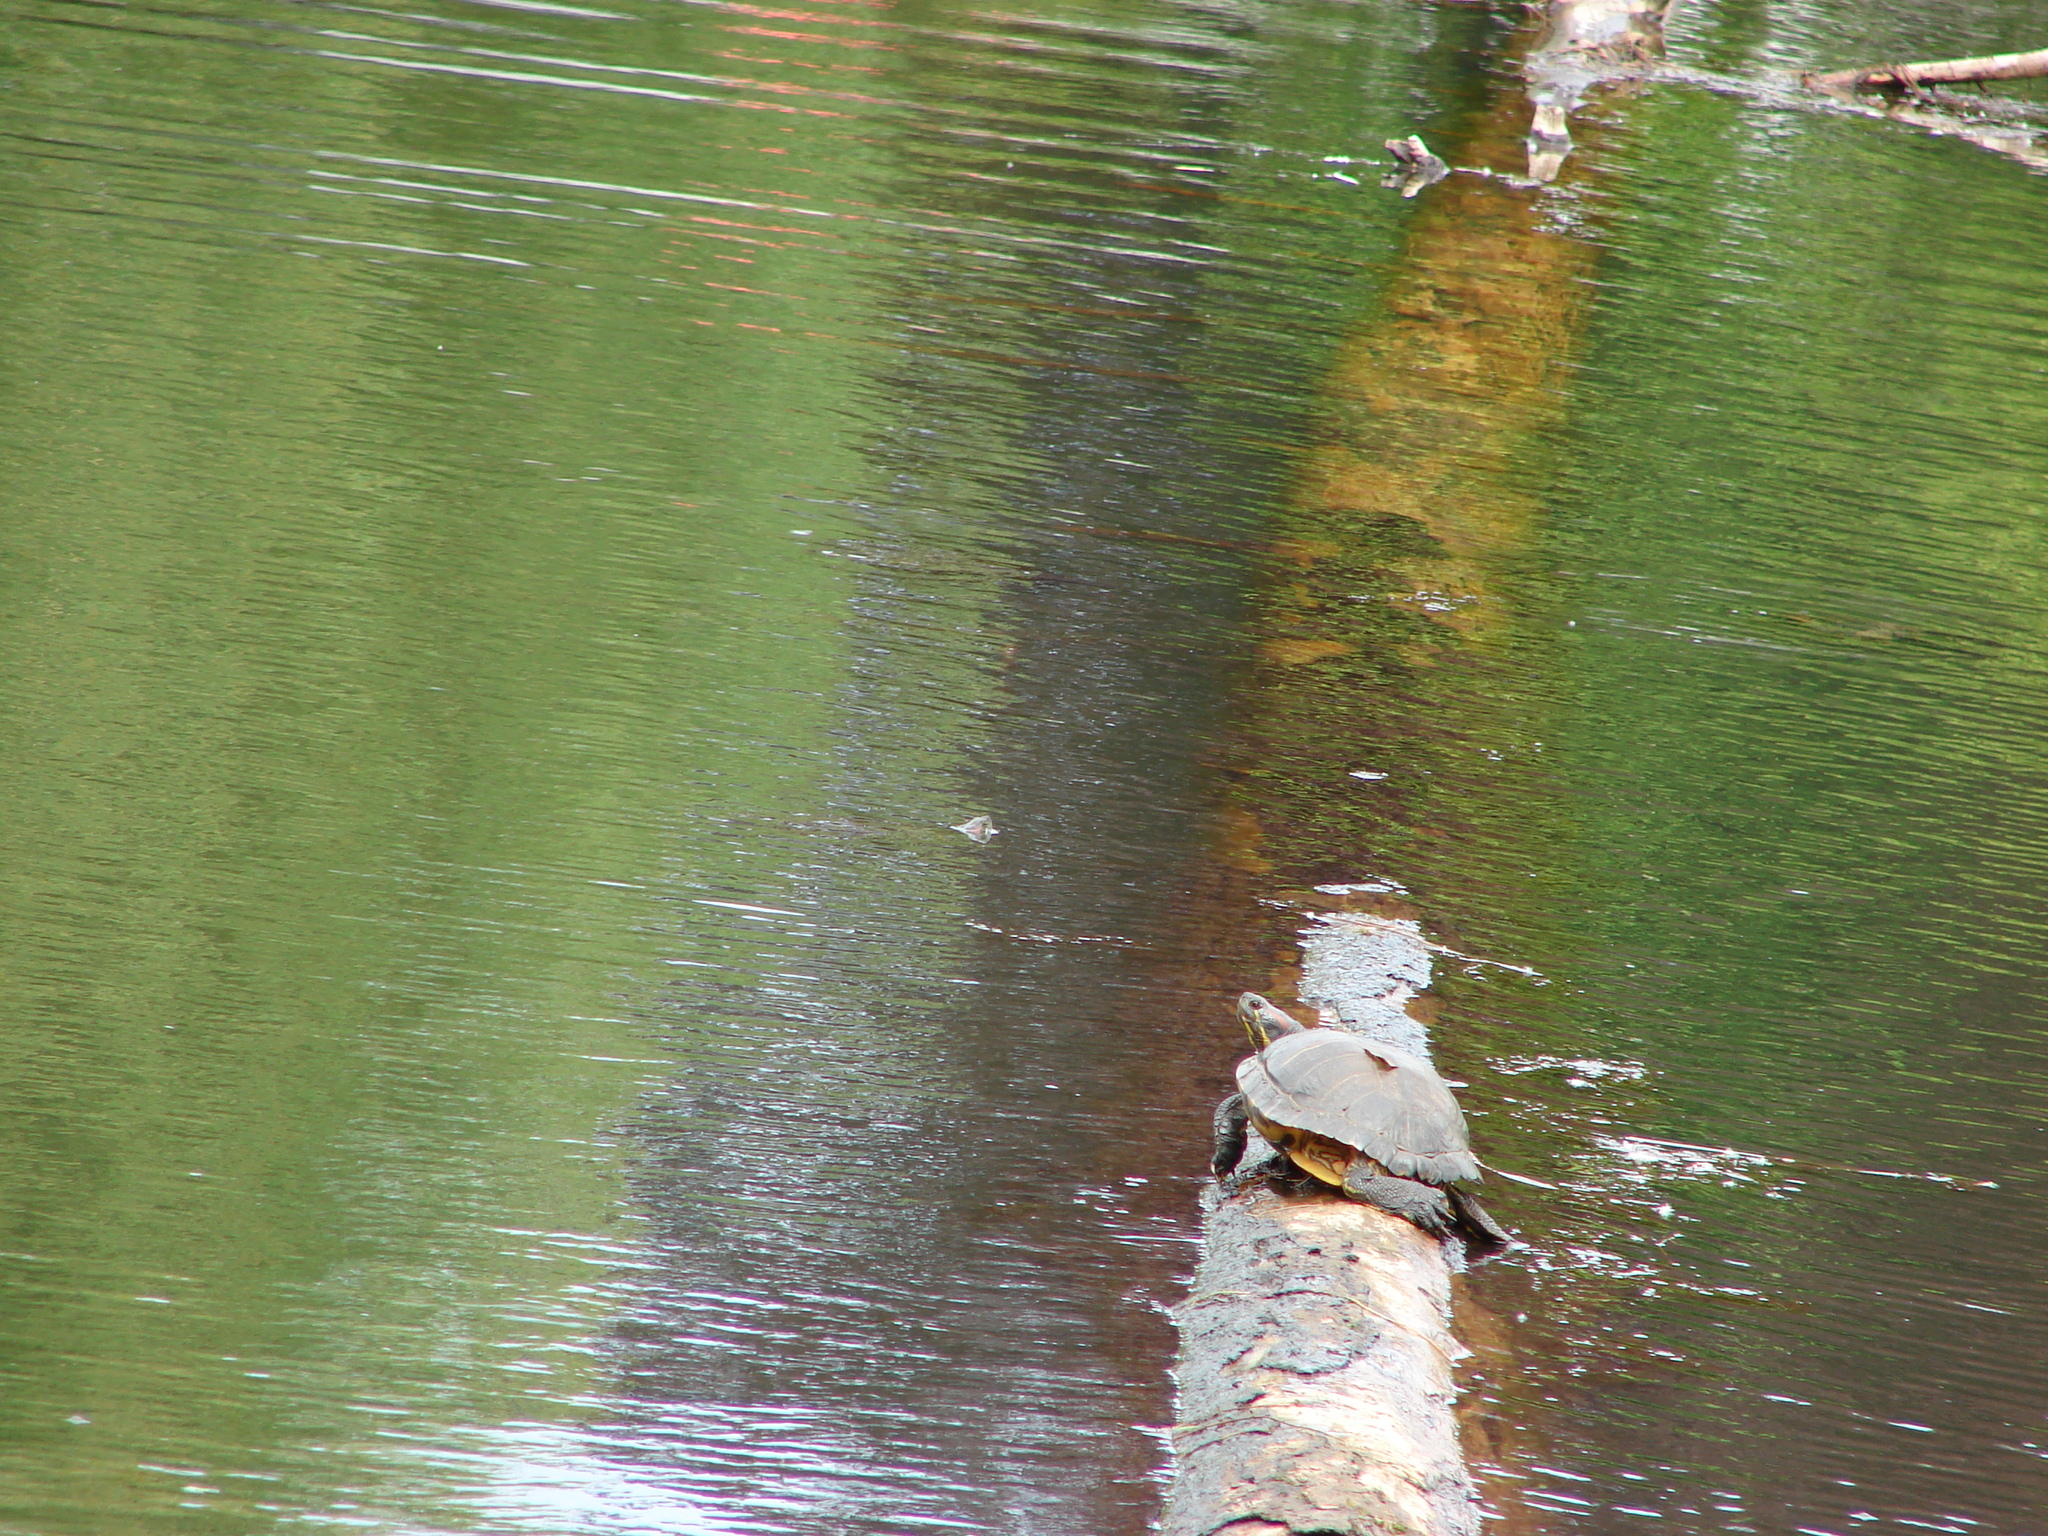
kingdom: Animalia
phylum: Chordata
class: Testudines
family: Emydidae
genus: Trachemys
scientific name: Trachemys scripta
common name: Slider
